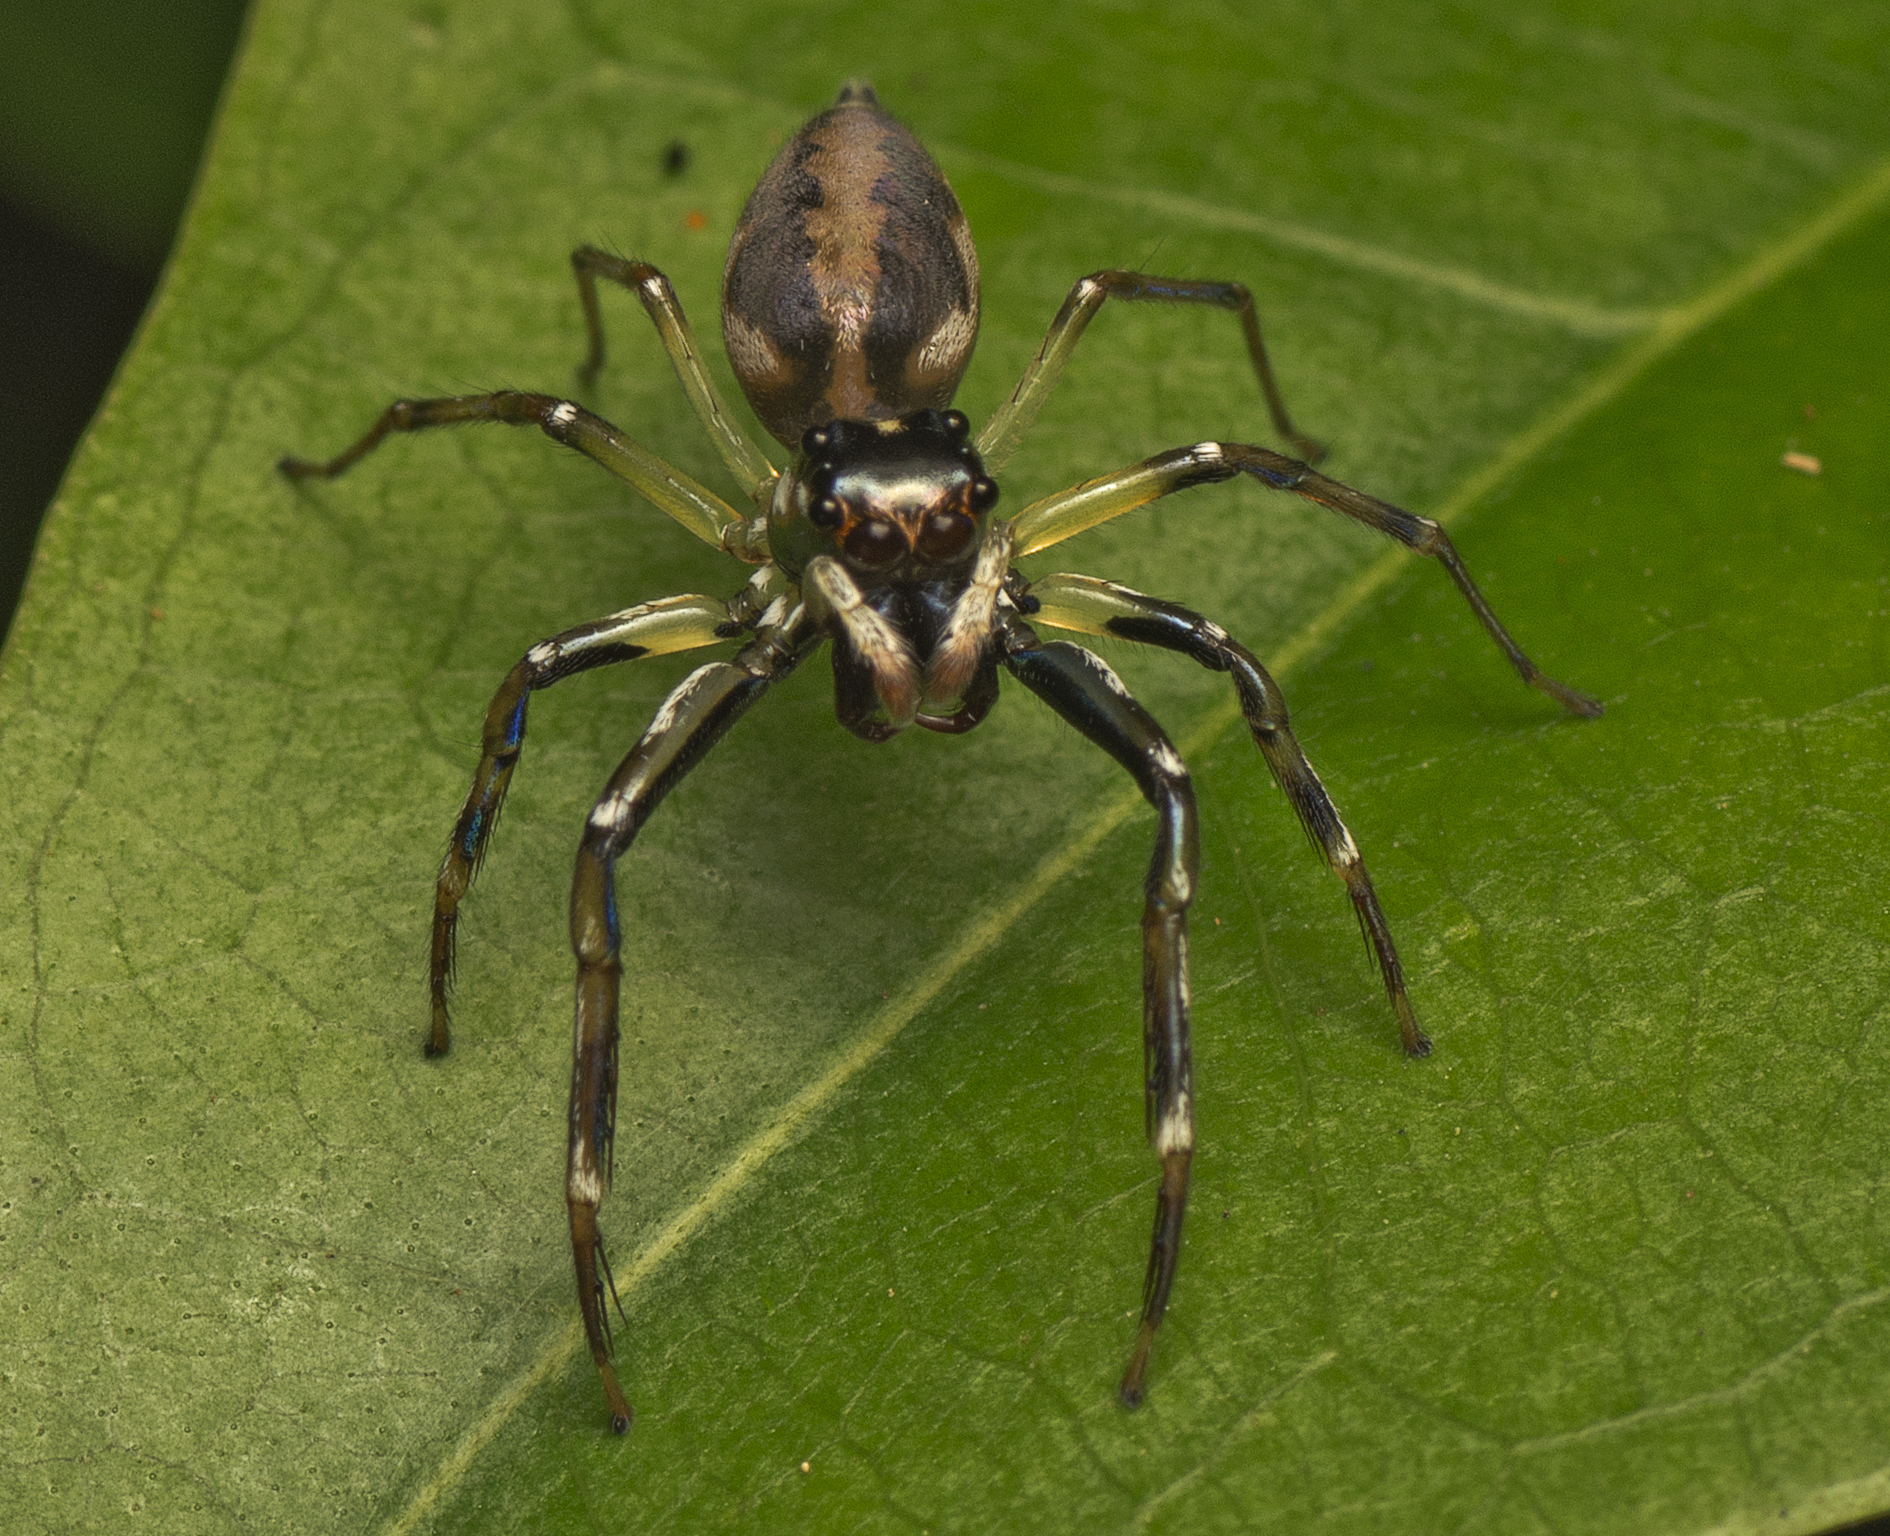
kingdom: Animalia
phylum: Arthropoda
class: Arachnida
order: Araneae
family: Salticidae
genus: Tauala
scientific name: Tauala lepidus
